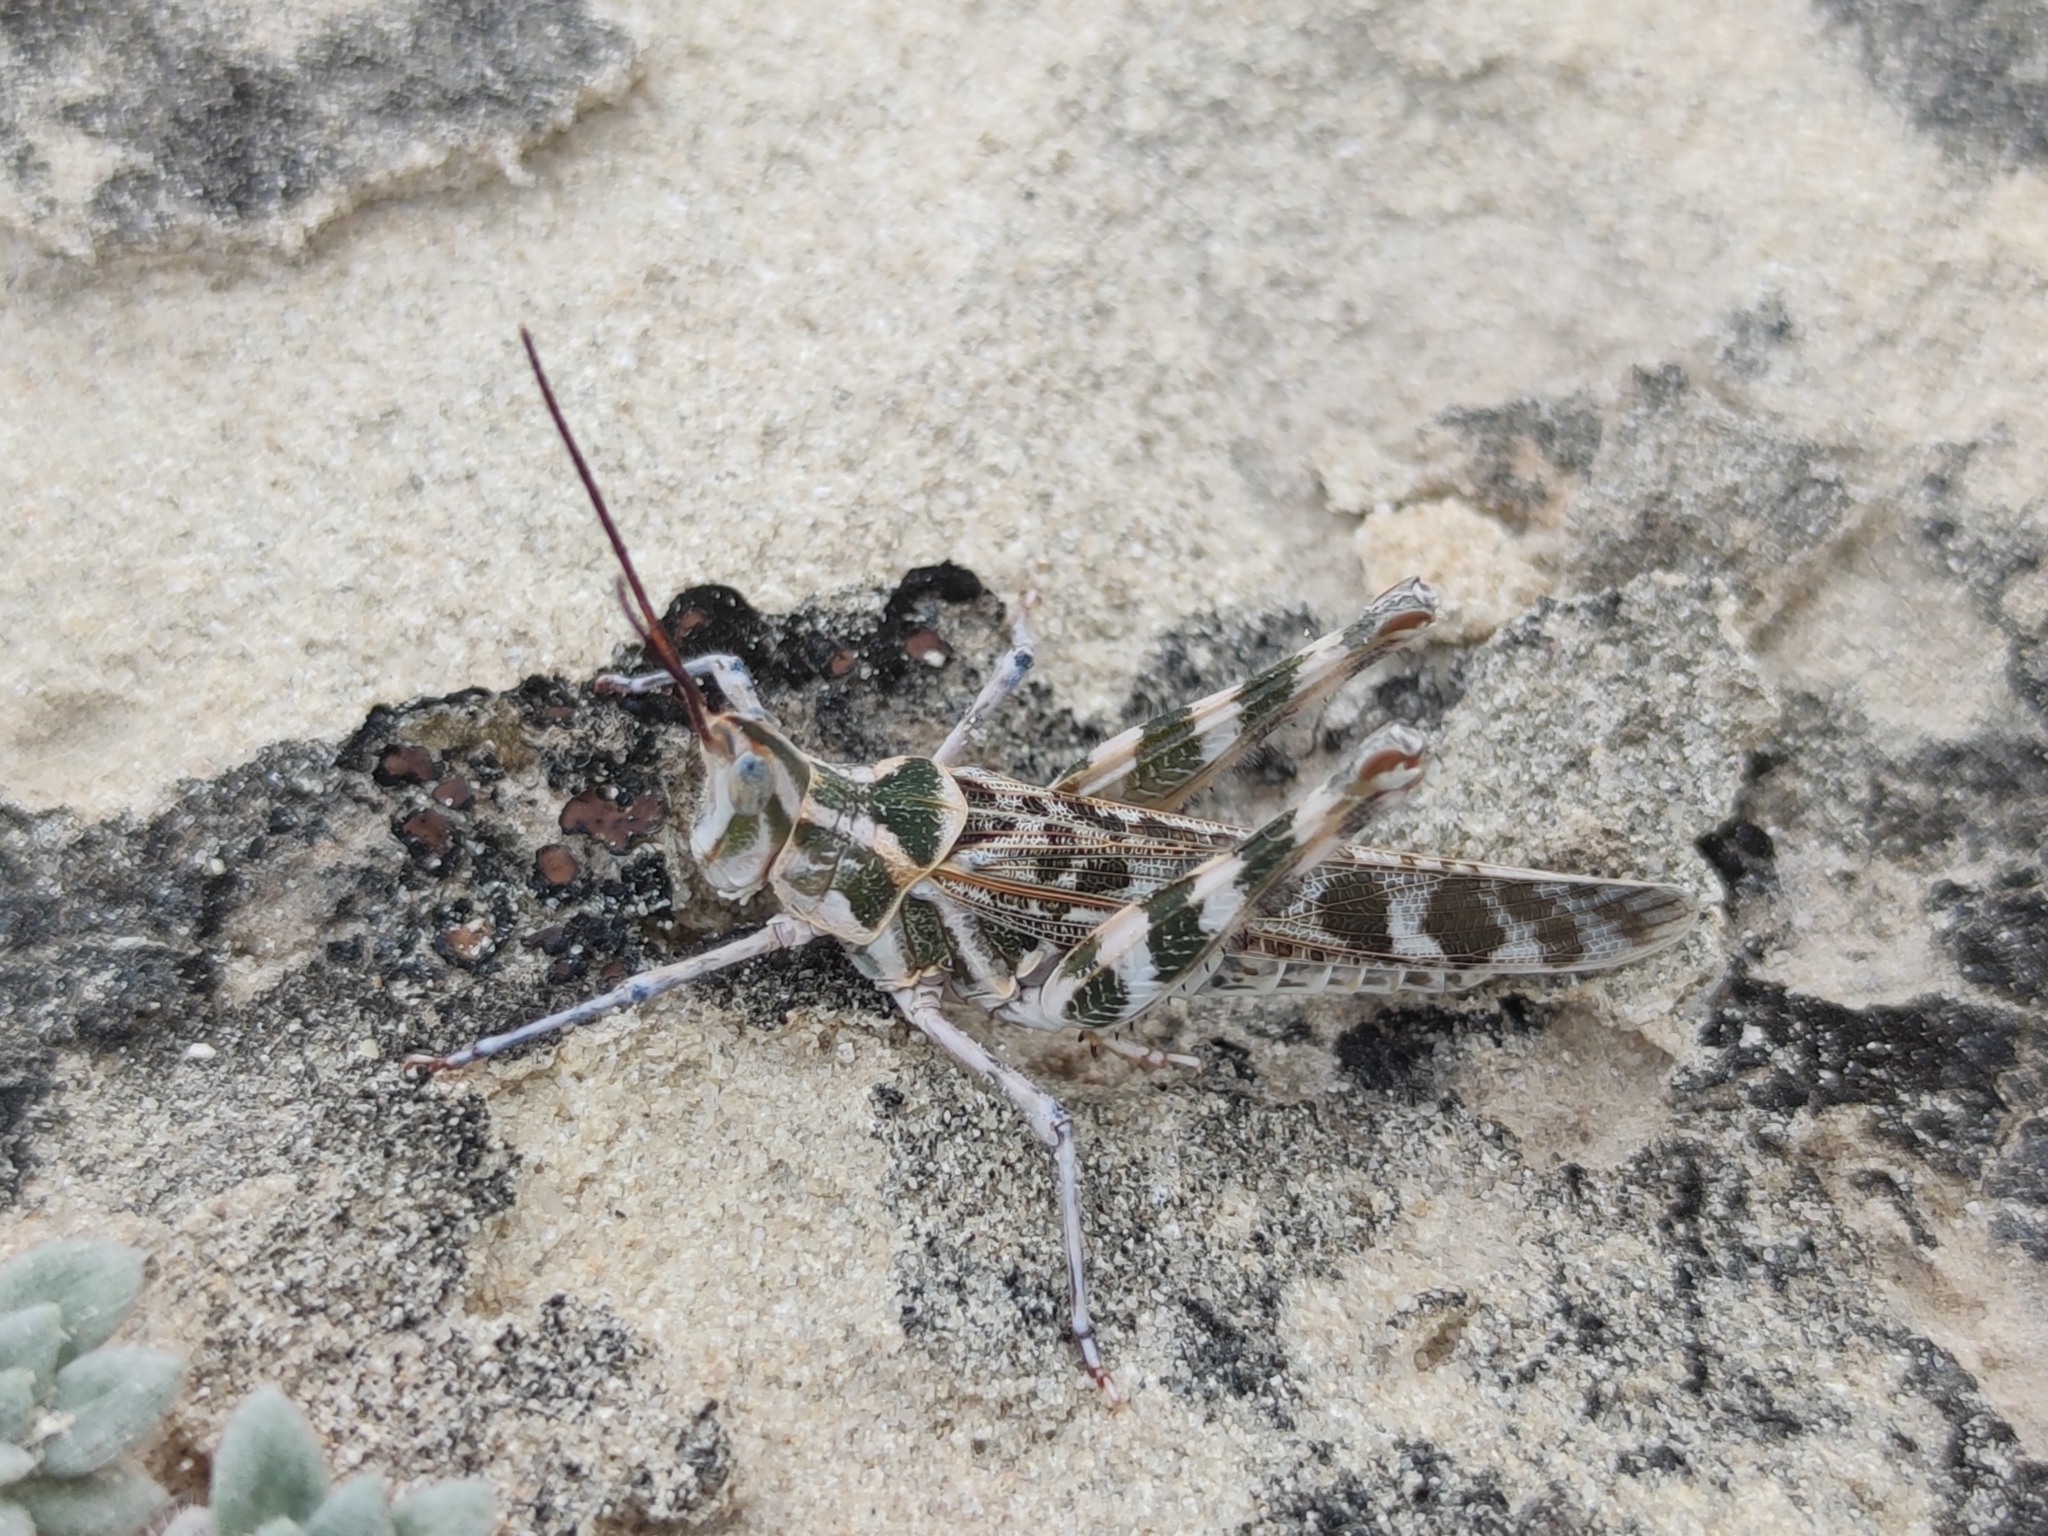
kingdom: Animalia
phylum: Arthropoda
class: Insecta
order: Orthoptera
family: Acrididae
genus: Acrolophitus
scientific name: Acrolophitus maculipennis
